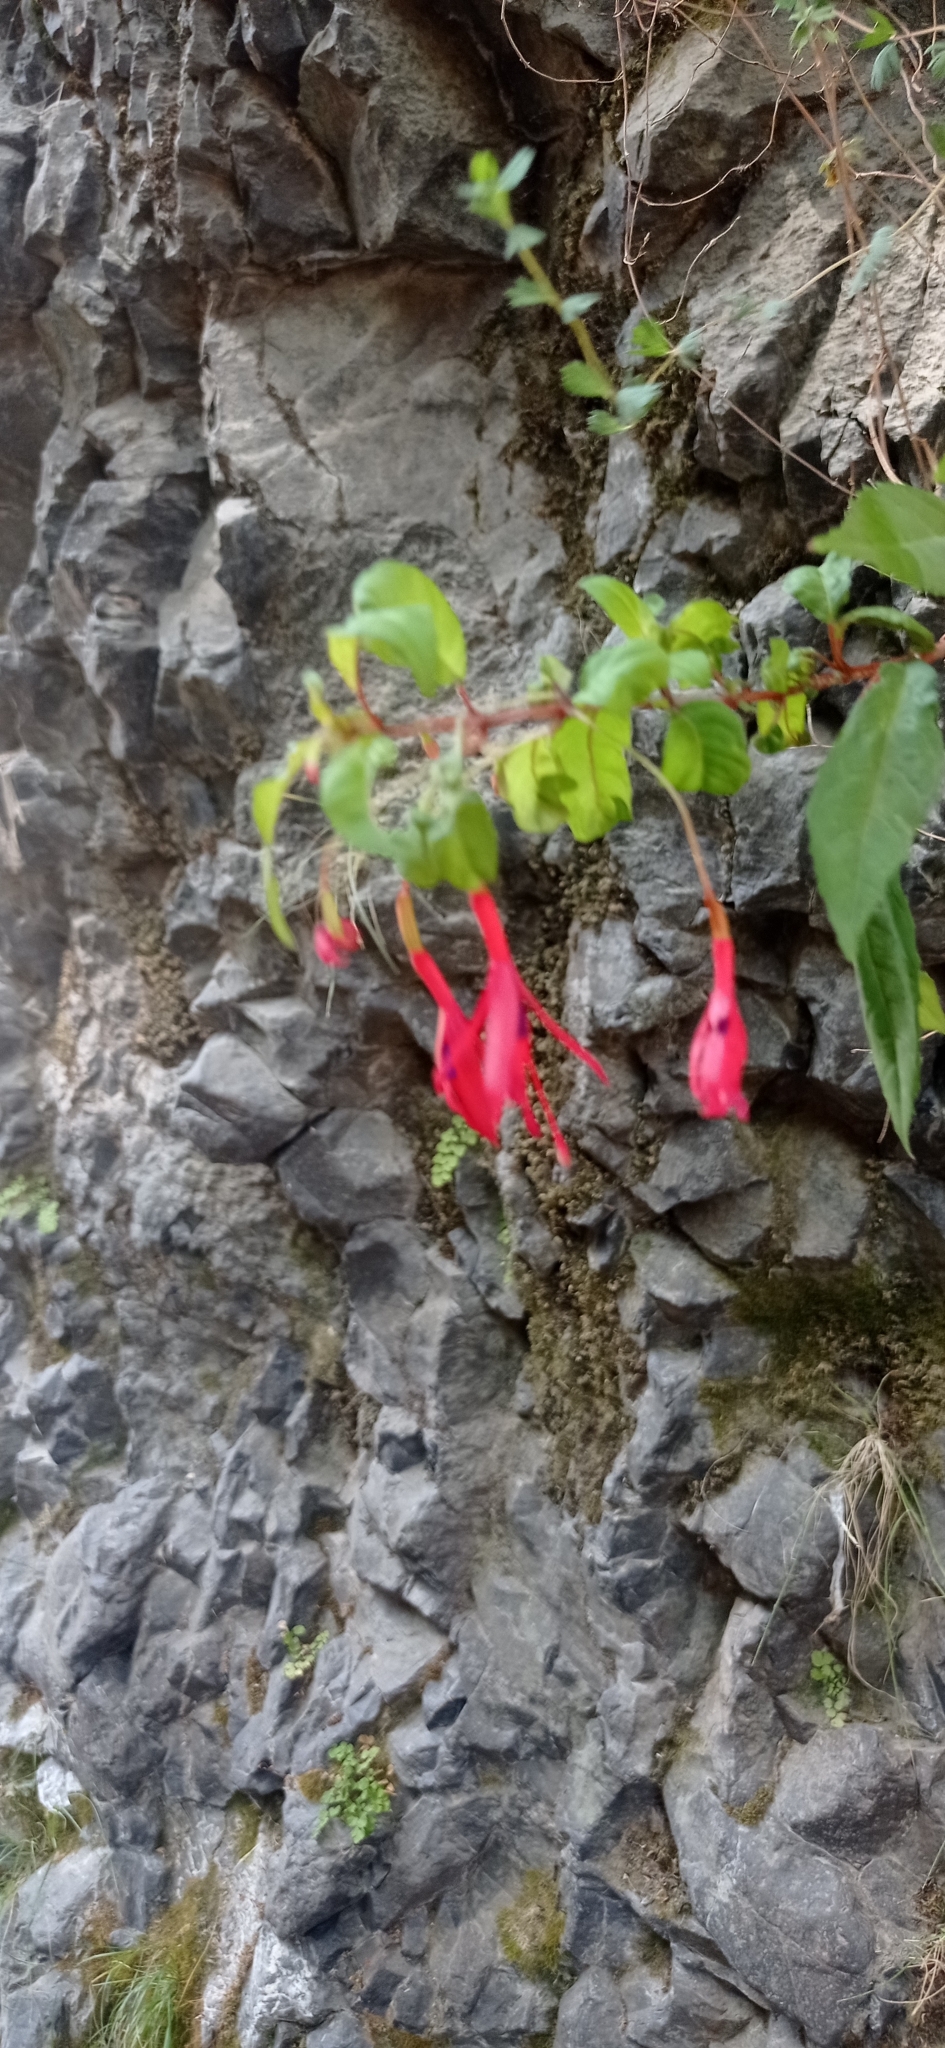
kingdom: Plantae
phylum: Tracheophyta
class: Magnoliopsida
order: Myrtales
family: Onagraceae
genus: Fuchsia
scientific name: Fuchsia magellanica
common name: Hardy fuchsia
